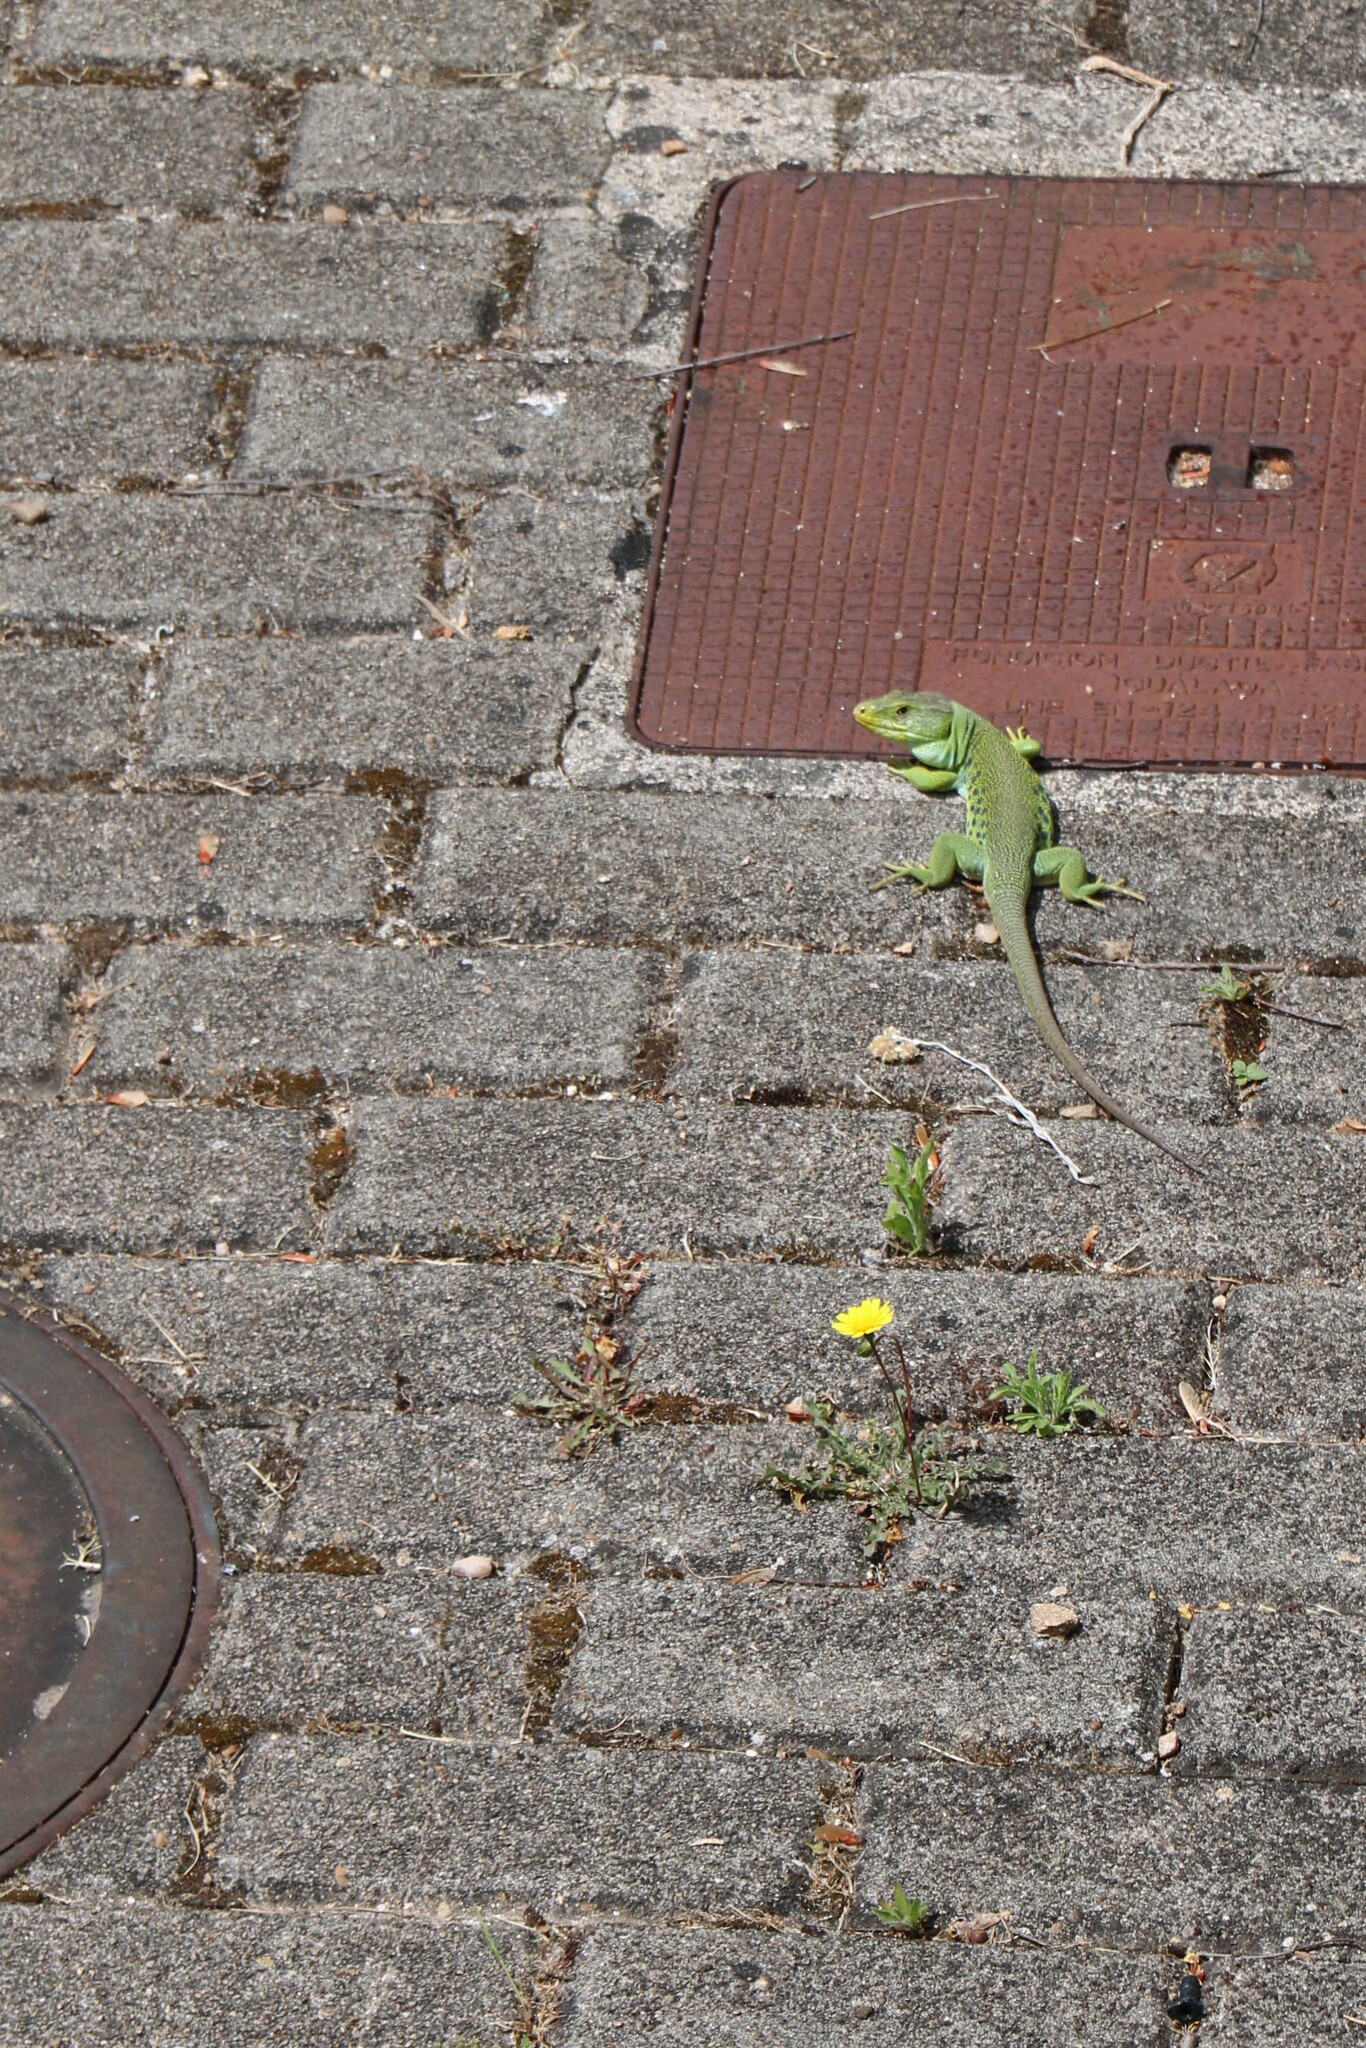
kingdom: Animalia
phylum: Chordata
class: Squamata
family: Lacertidae
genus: Timon
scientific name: Timon lepidus
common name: Ocellated lizard
